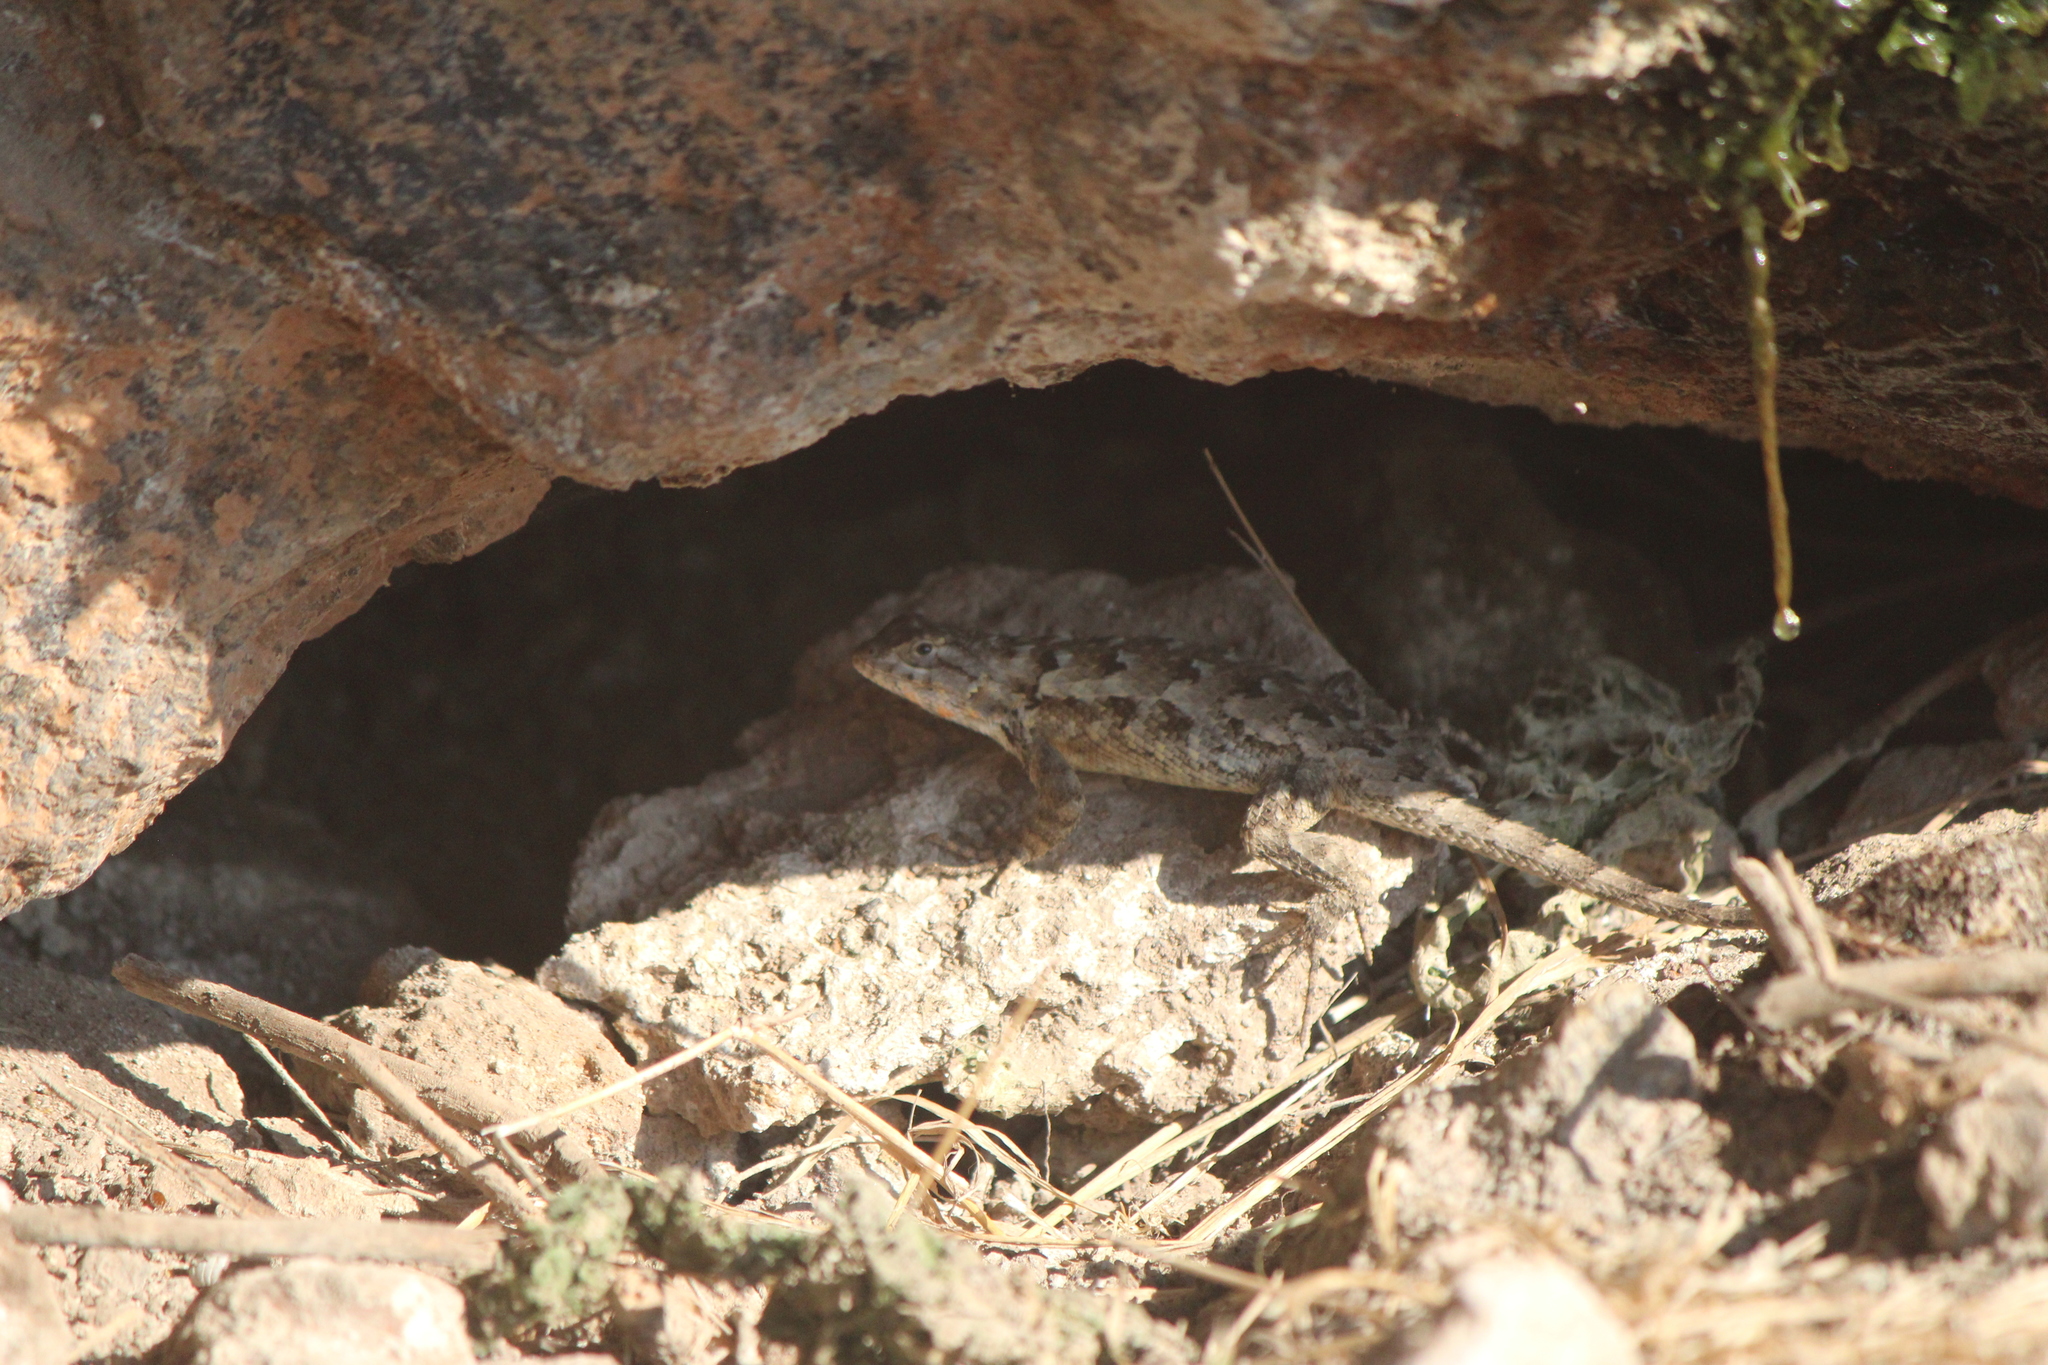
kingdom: Animalia
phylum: Chordata
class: Squamata
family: Phrynosomatidae
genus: Sceloporus
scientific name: Sceloporus spinosus
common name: Blue-spotted spiny lizard [caeruleopunctatus]
